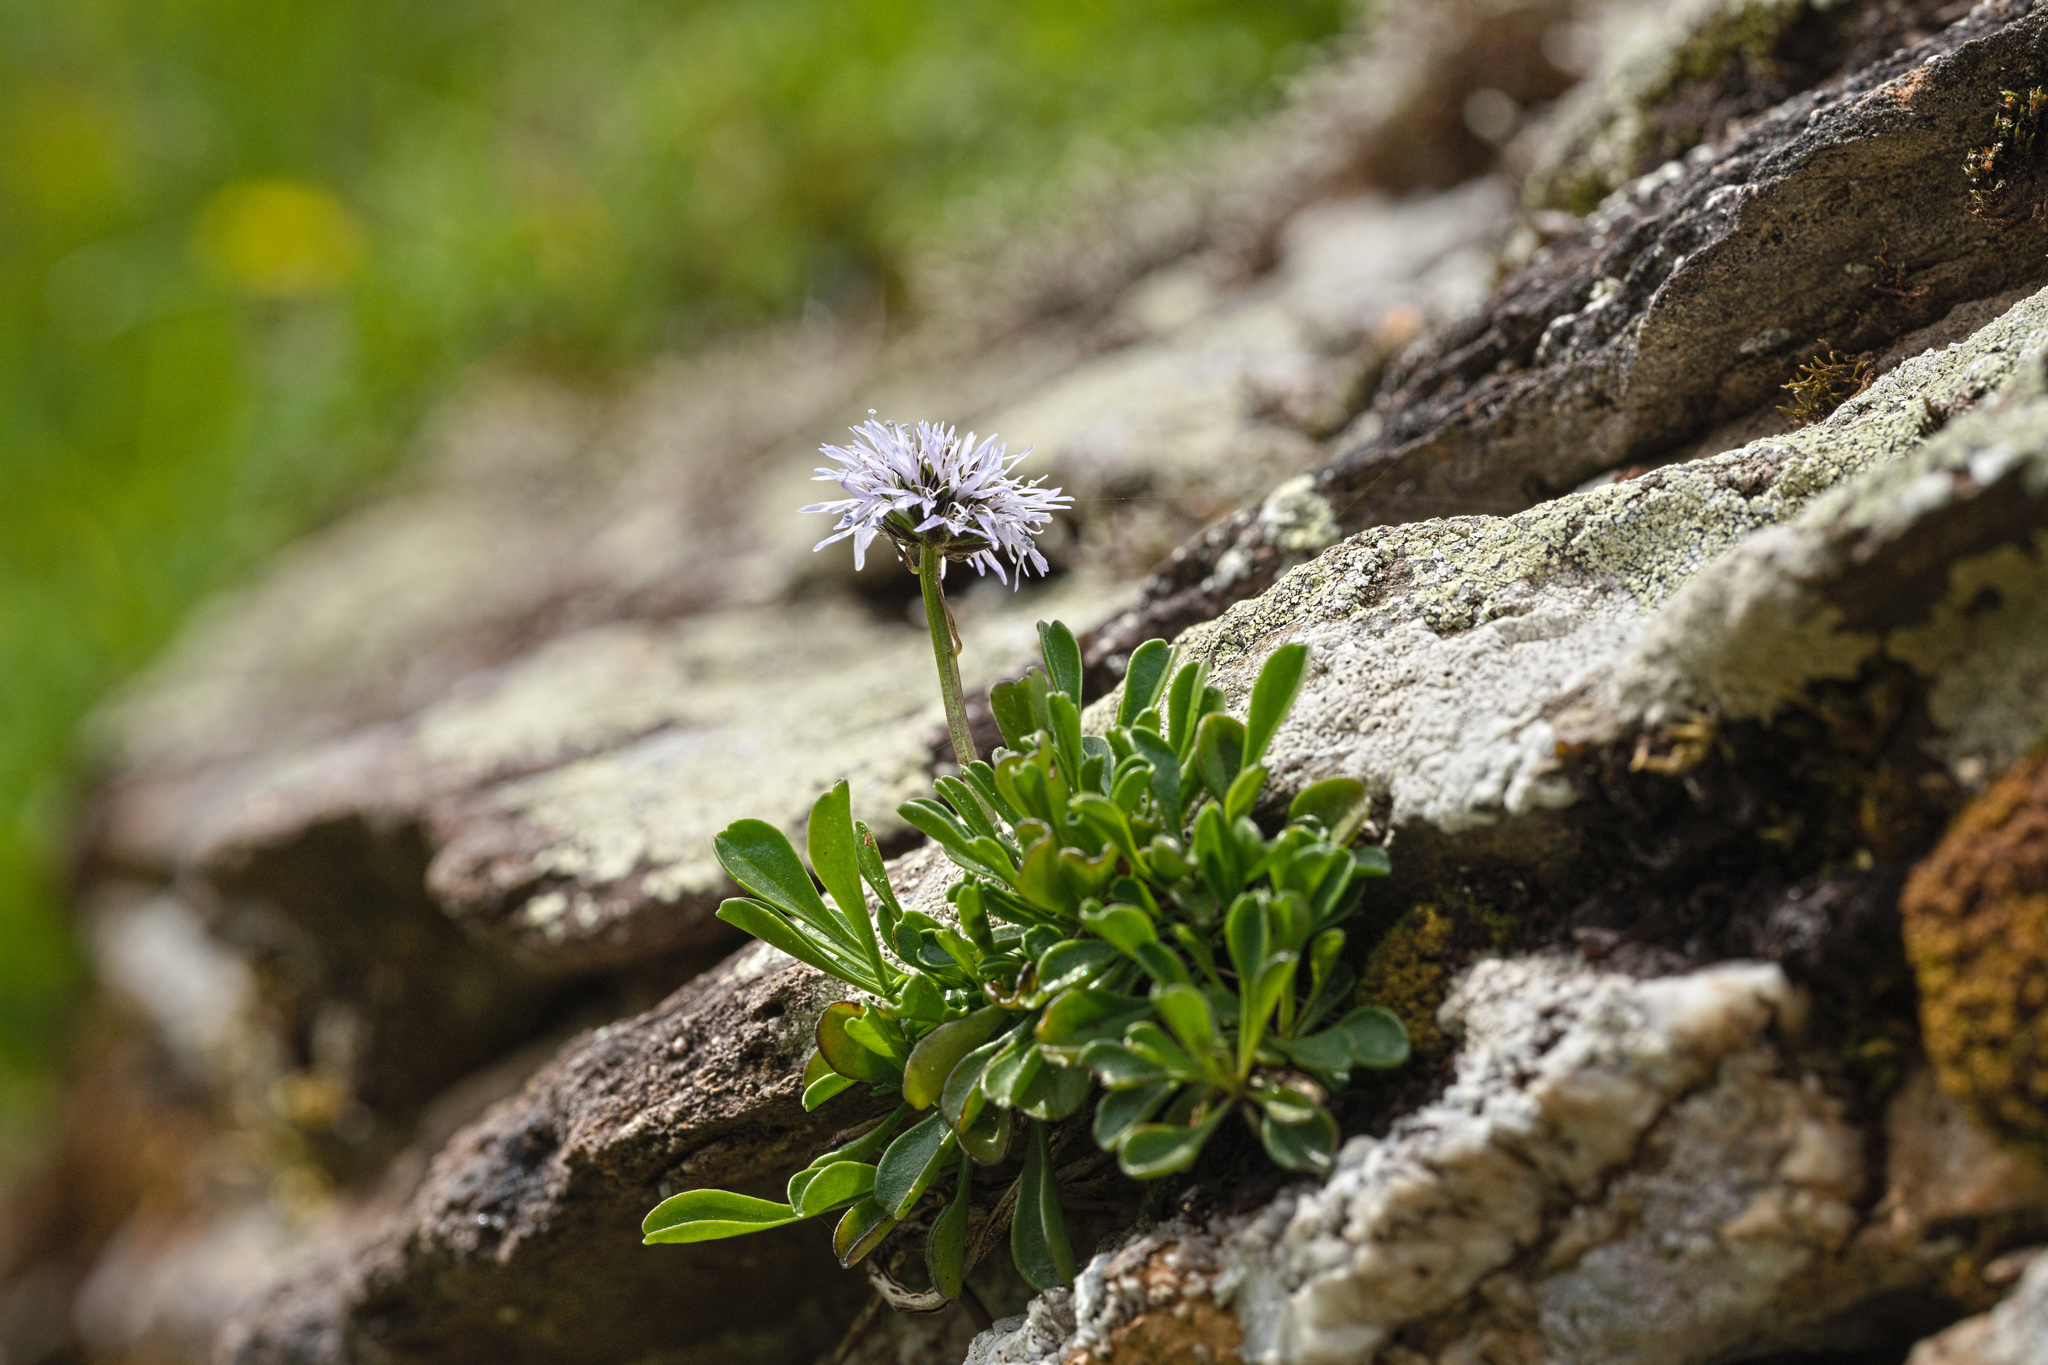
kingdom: Plantae
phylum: Tracheophyta
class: Magnoliopsida
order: Lamiales
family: Plantaginaceae
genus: Globularia
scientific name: Globularia cordifolia
